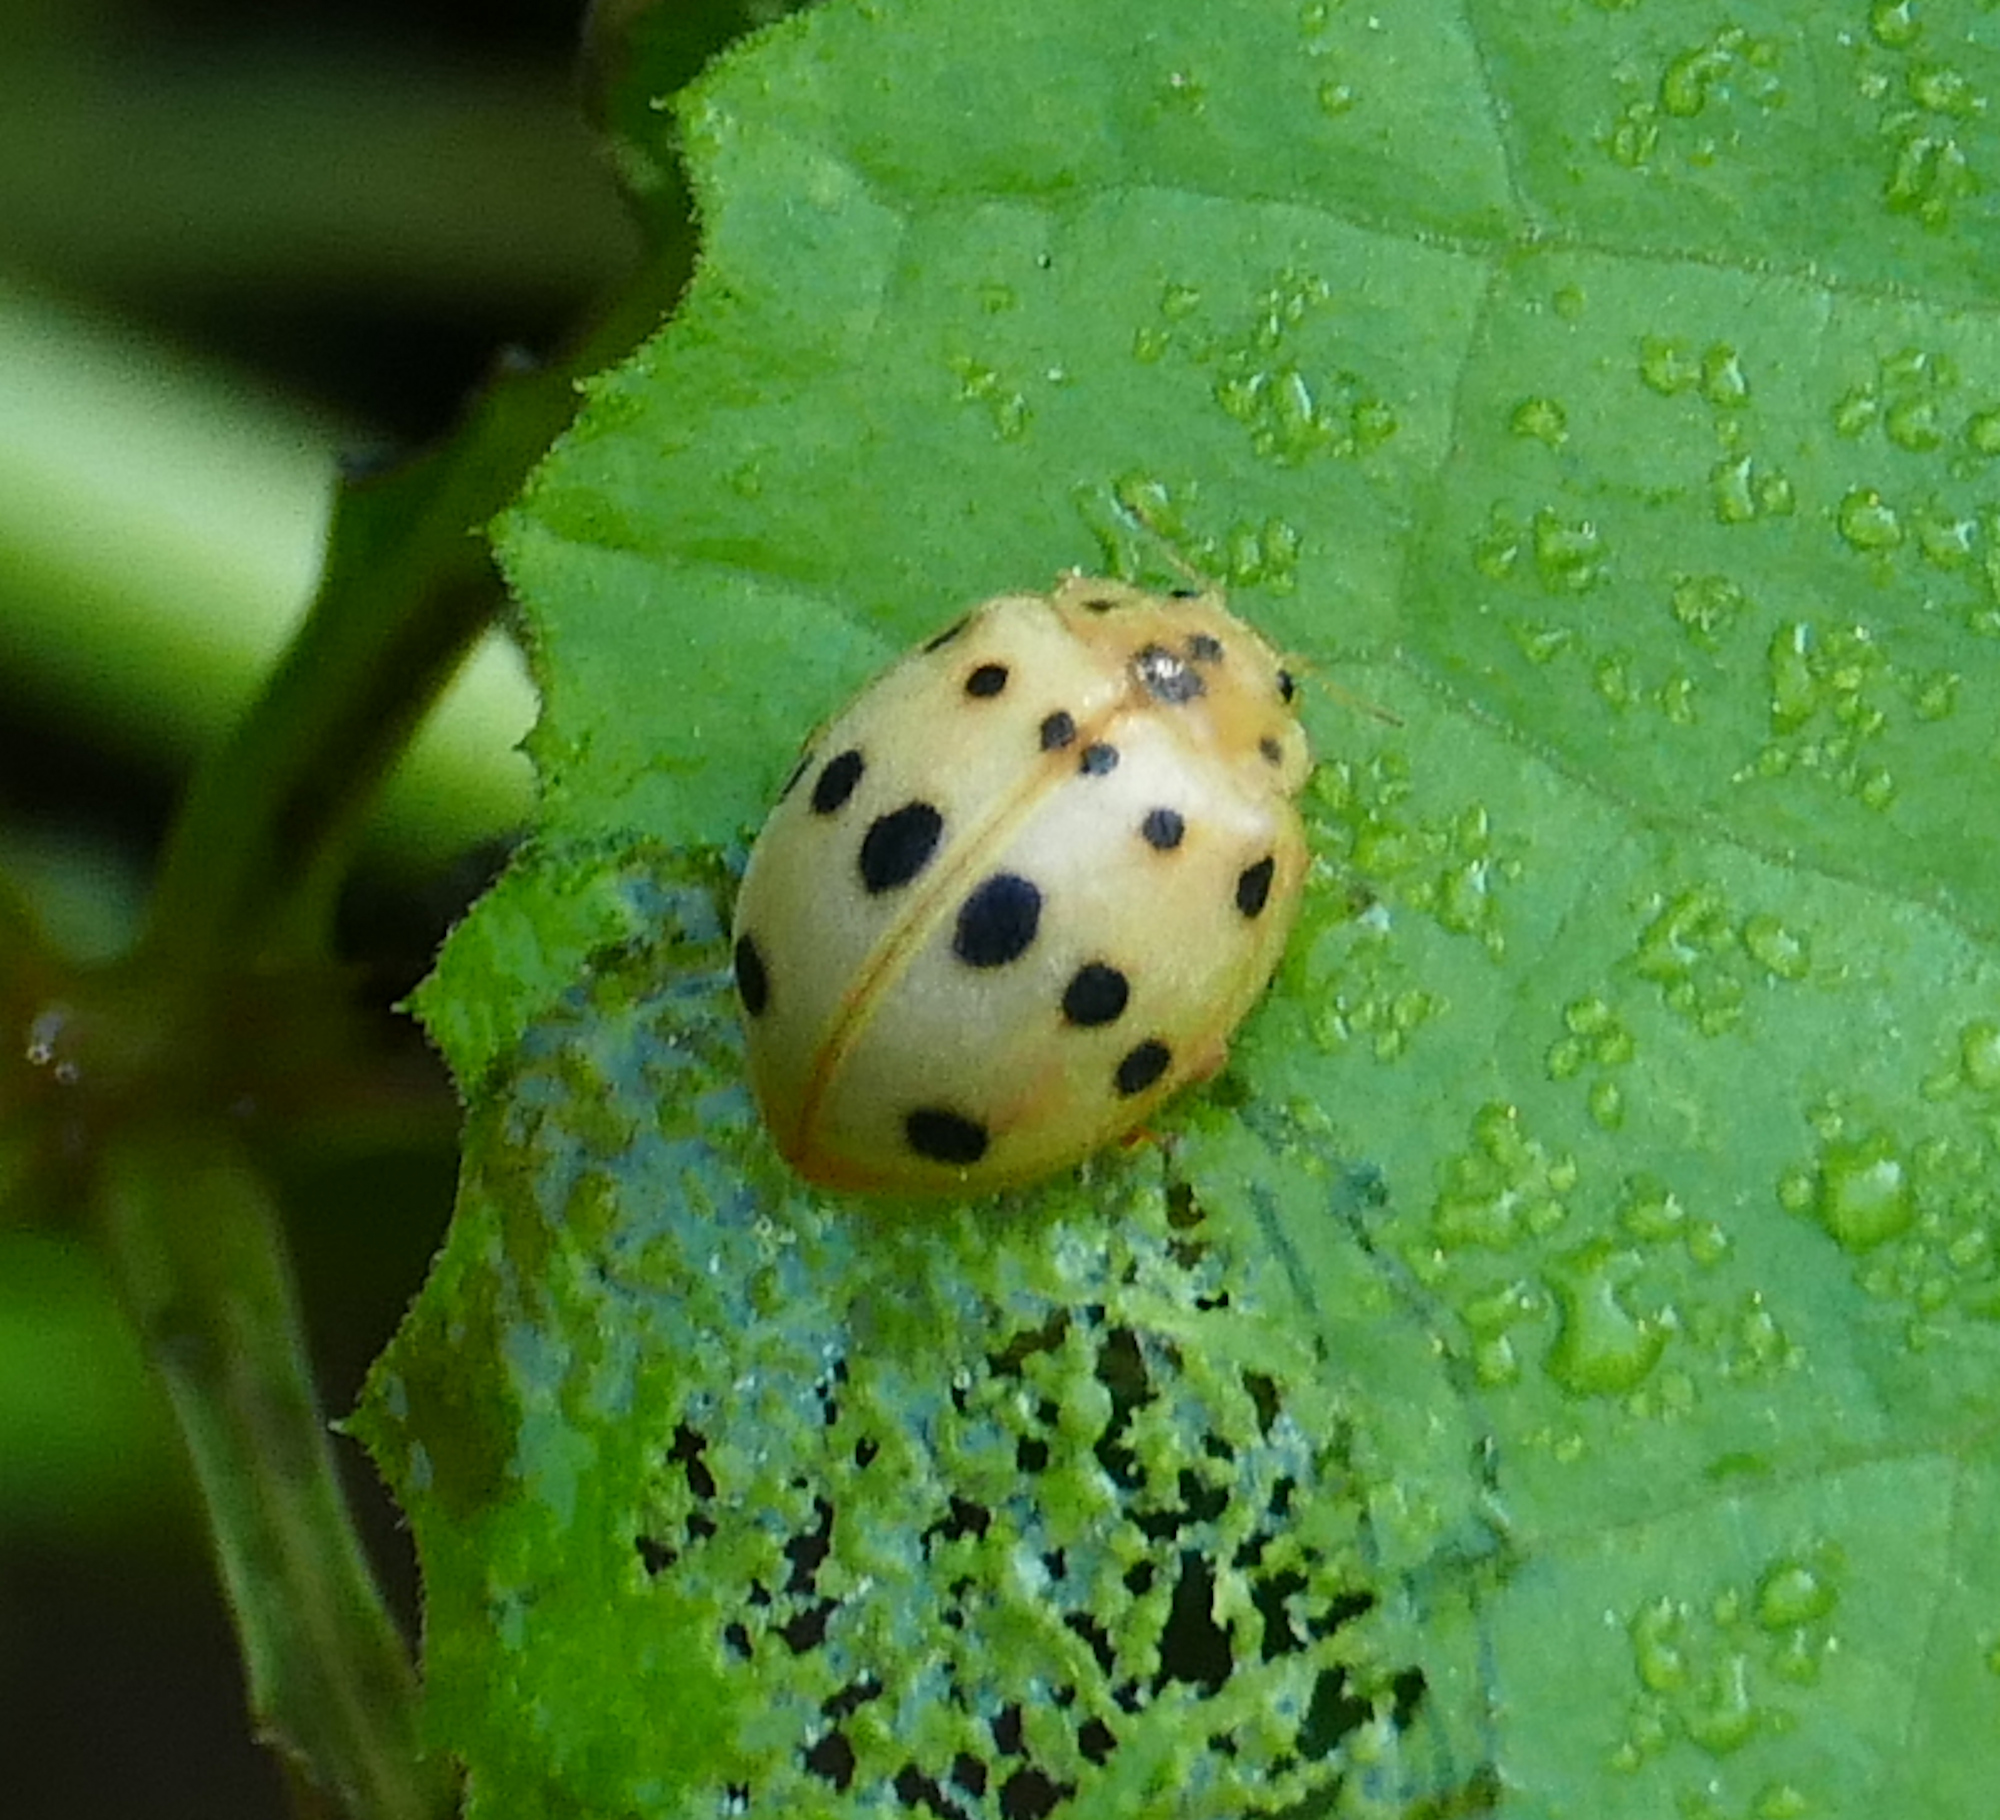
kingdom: Animalia
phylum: Arthropoda
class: Insecta
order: Coleoptera
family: Coccinellidae
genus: Epilachna
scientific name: Epilachna tredecimnotata
